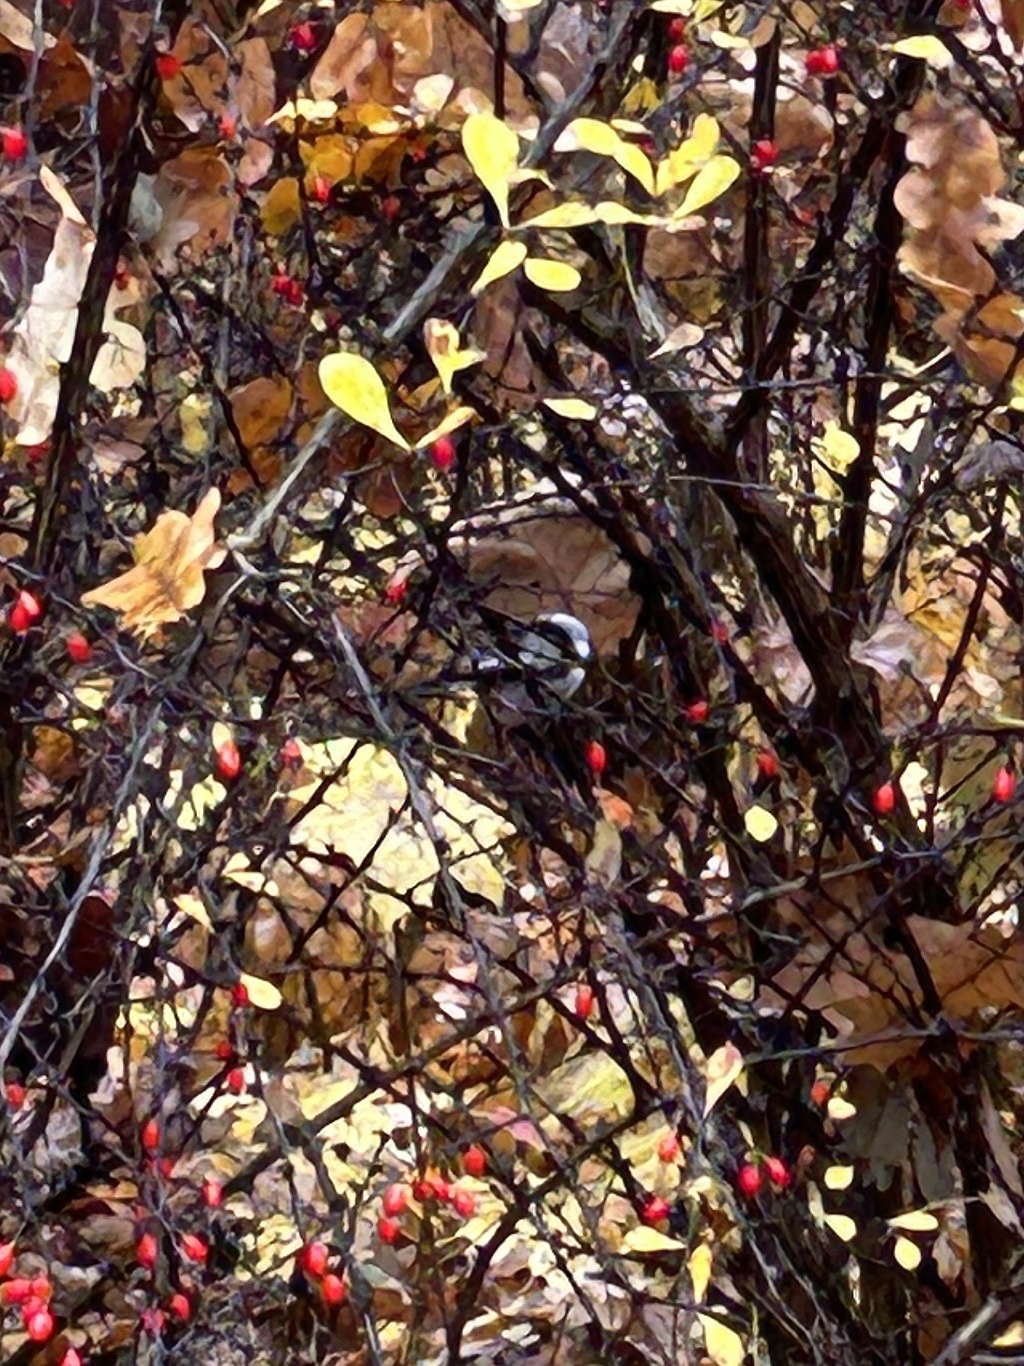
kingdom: Animalia
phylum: Chordata
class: Aves
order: Passeriformes
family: Aegithalidae
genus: Aegithalos
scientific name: Aegithalos caudatus
